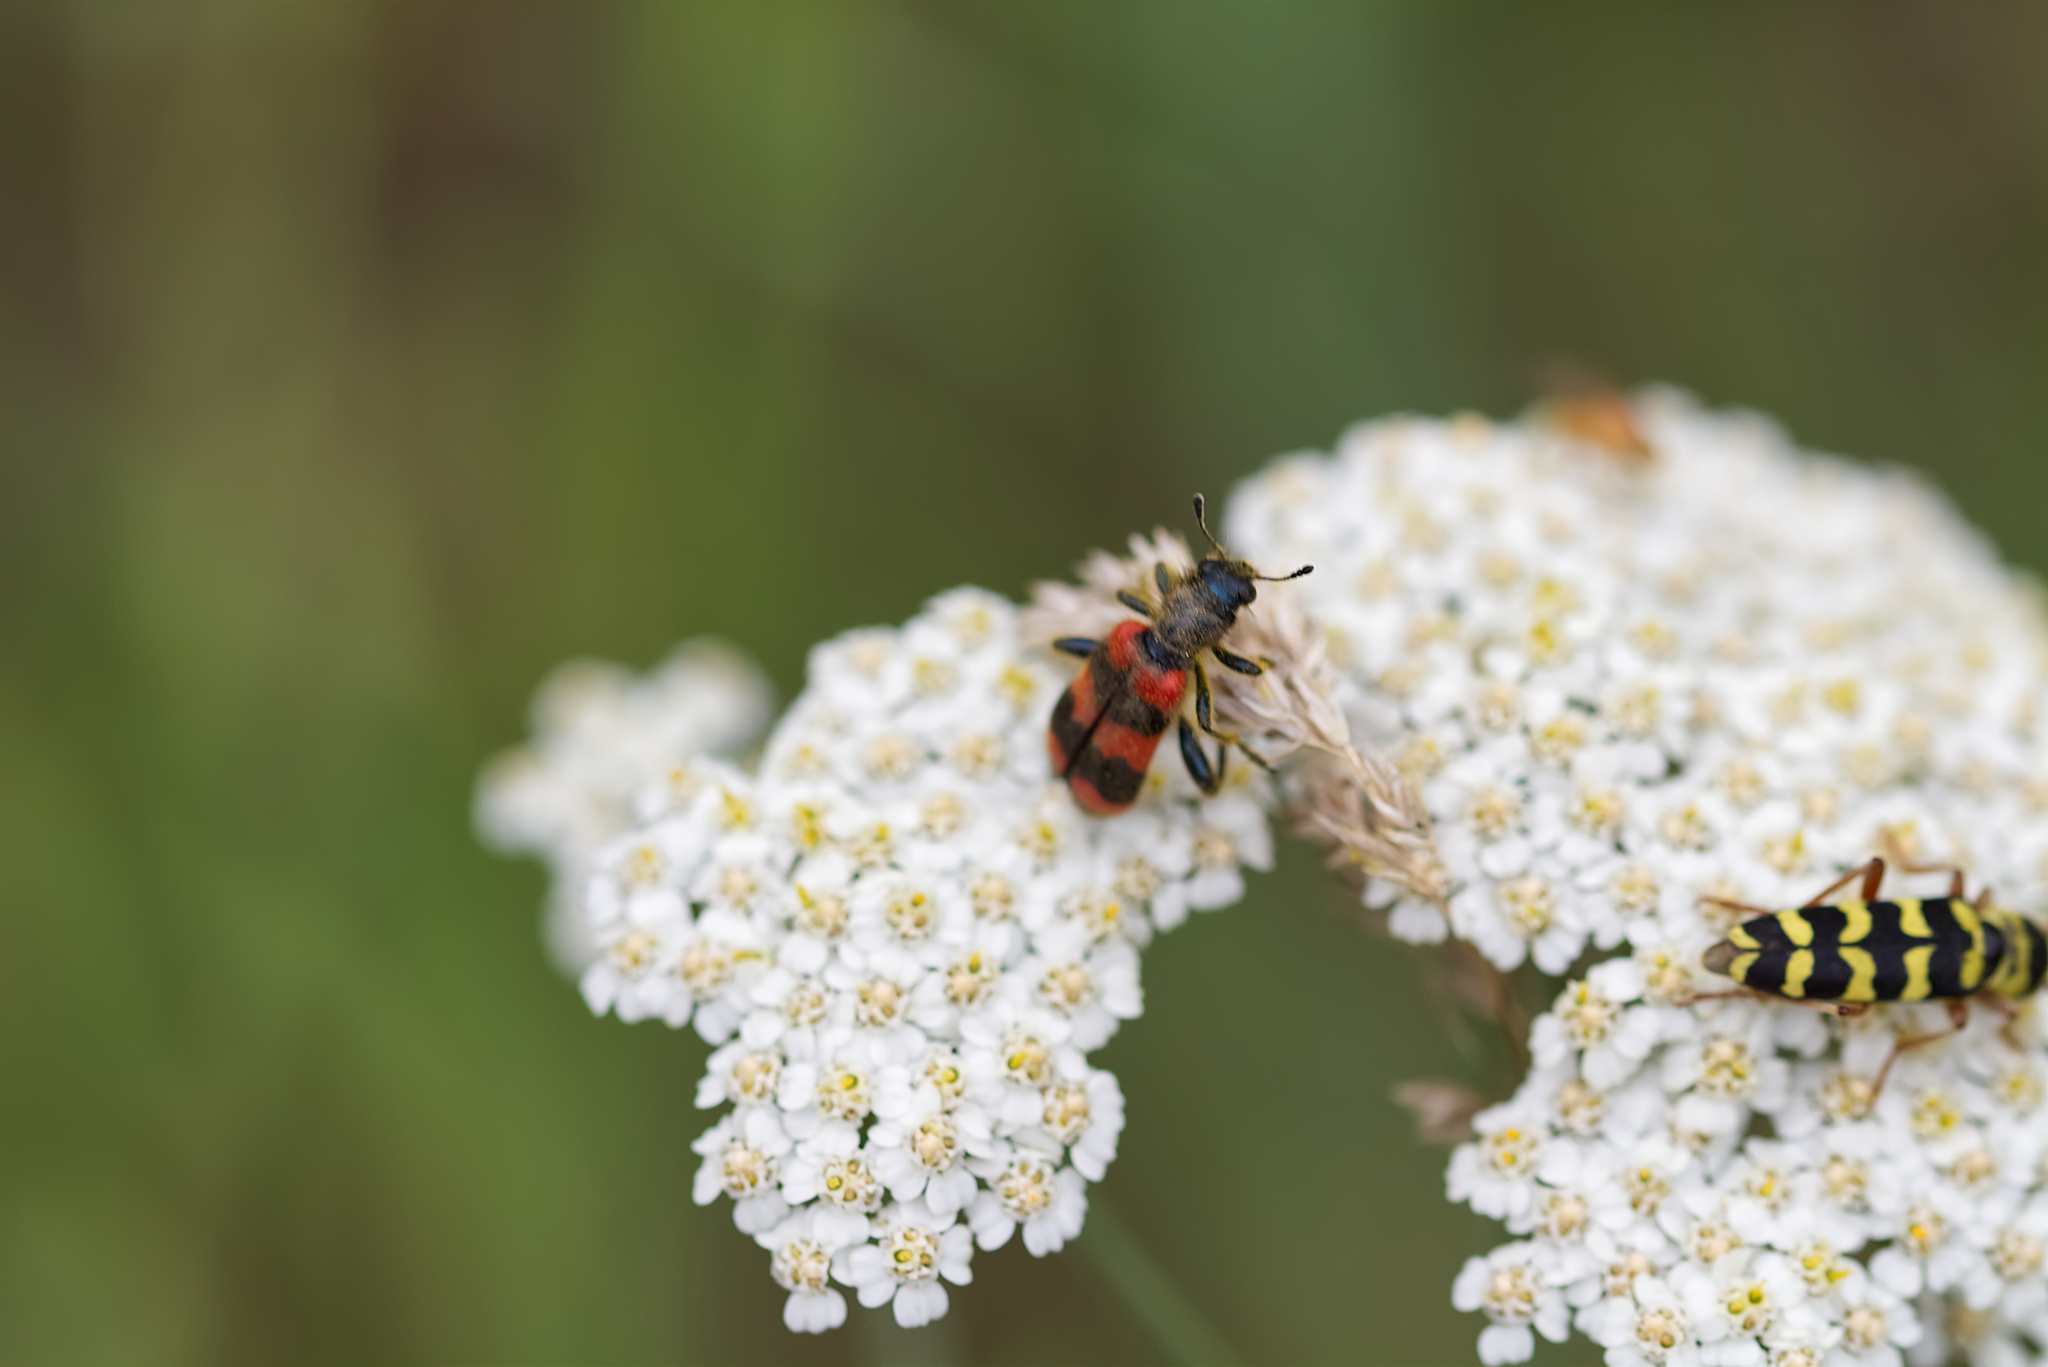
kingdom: Animalia
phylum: Arthropoda
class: Insecta
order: Coleoptera
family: Cleridae
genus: Trichodes
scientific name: Trichodes apiarius
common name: Bee-eating beetle
